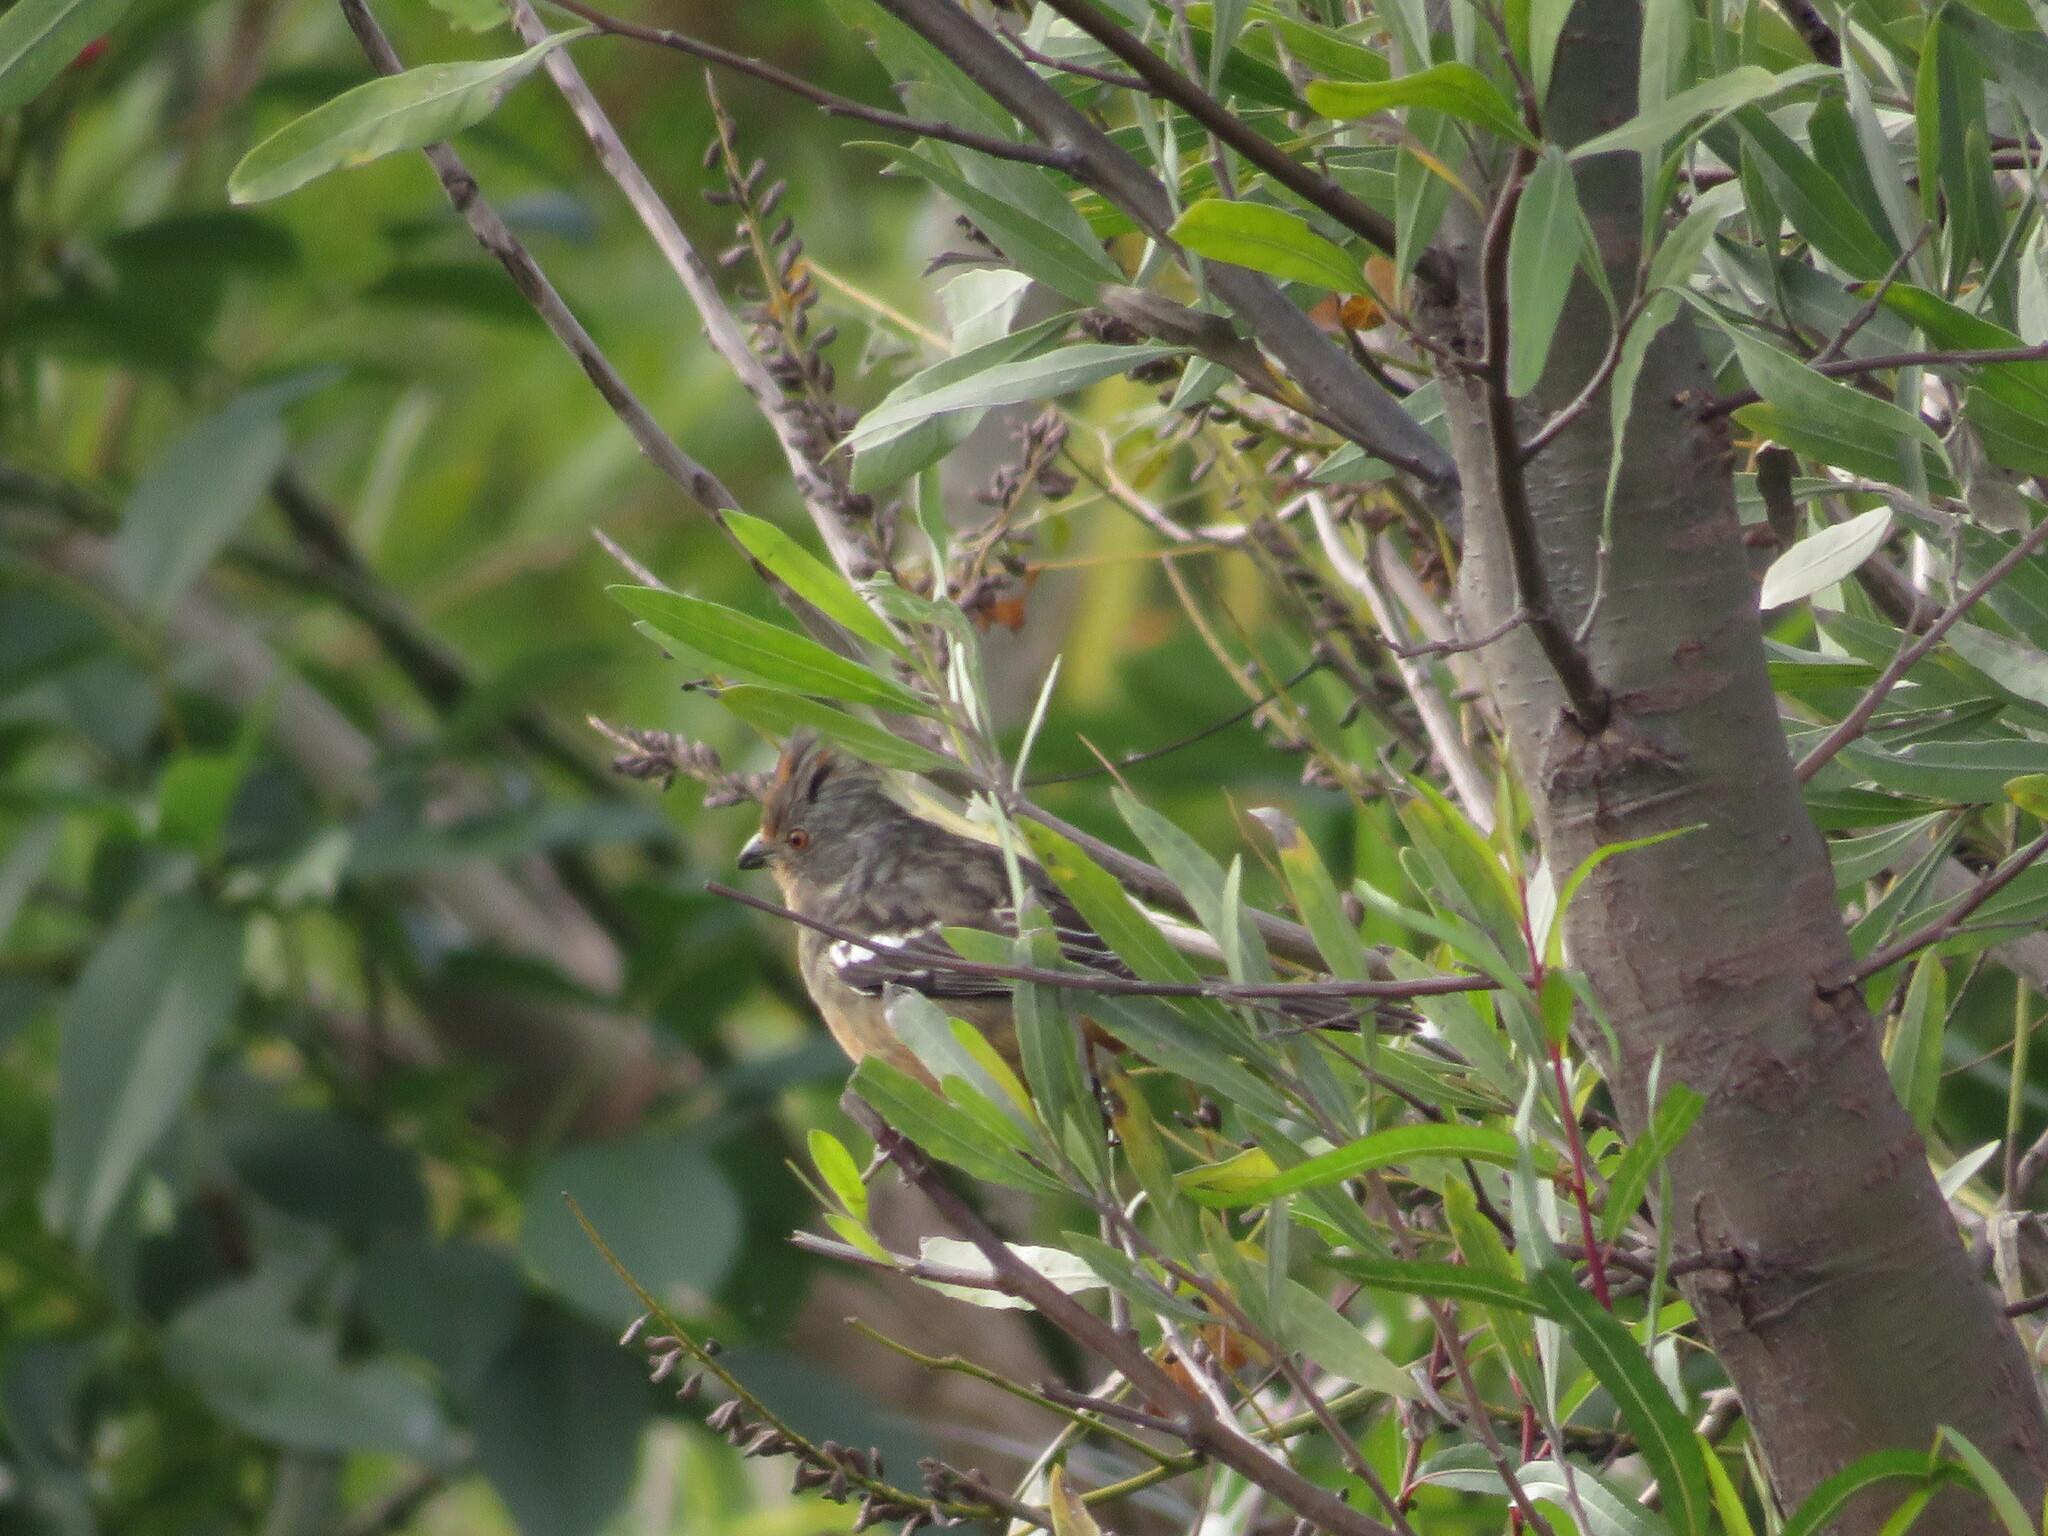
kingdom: Animalia
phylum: Chordata
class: Aves
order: Passeriformes
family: Cotingidae
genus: Phytotoma
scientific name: Phytotoma rutila
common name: White-tipped plantcutter
